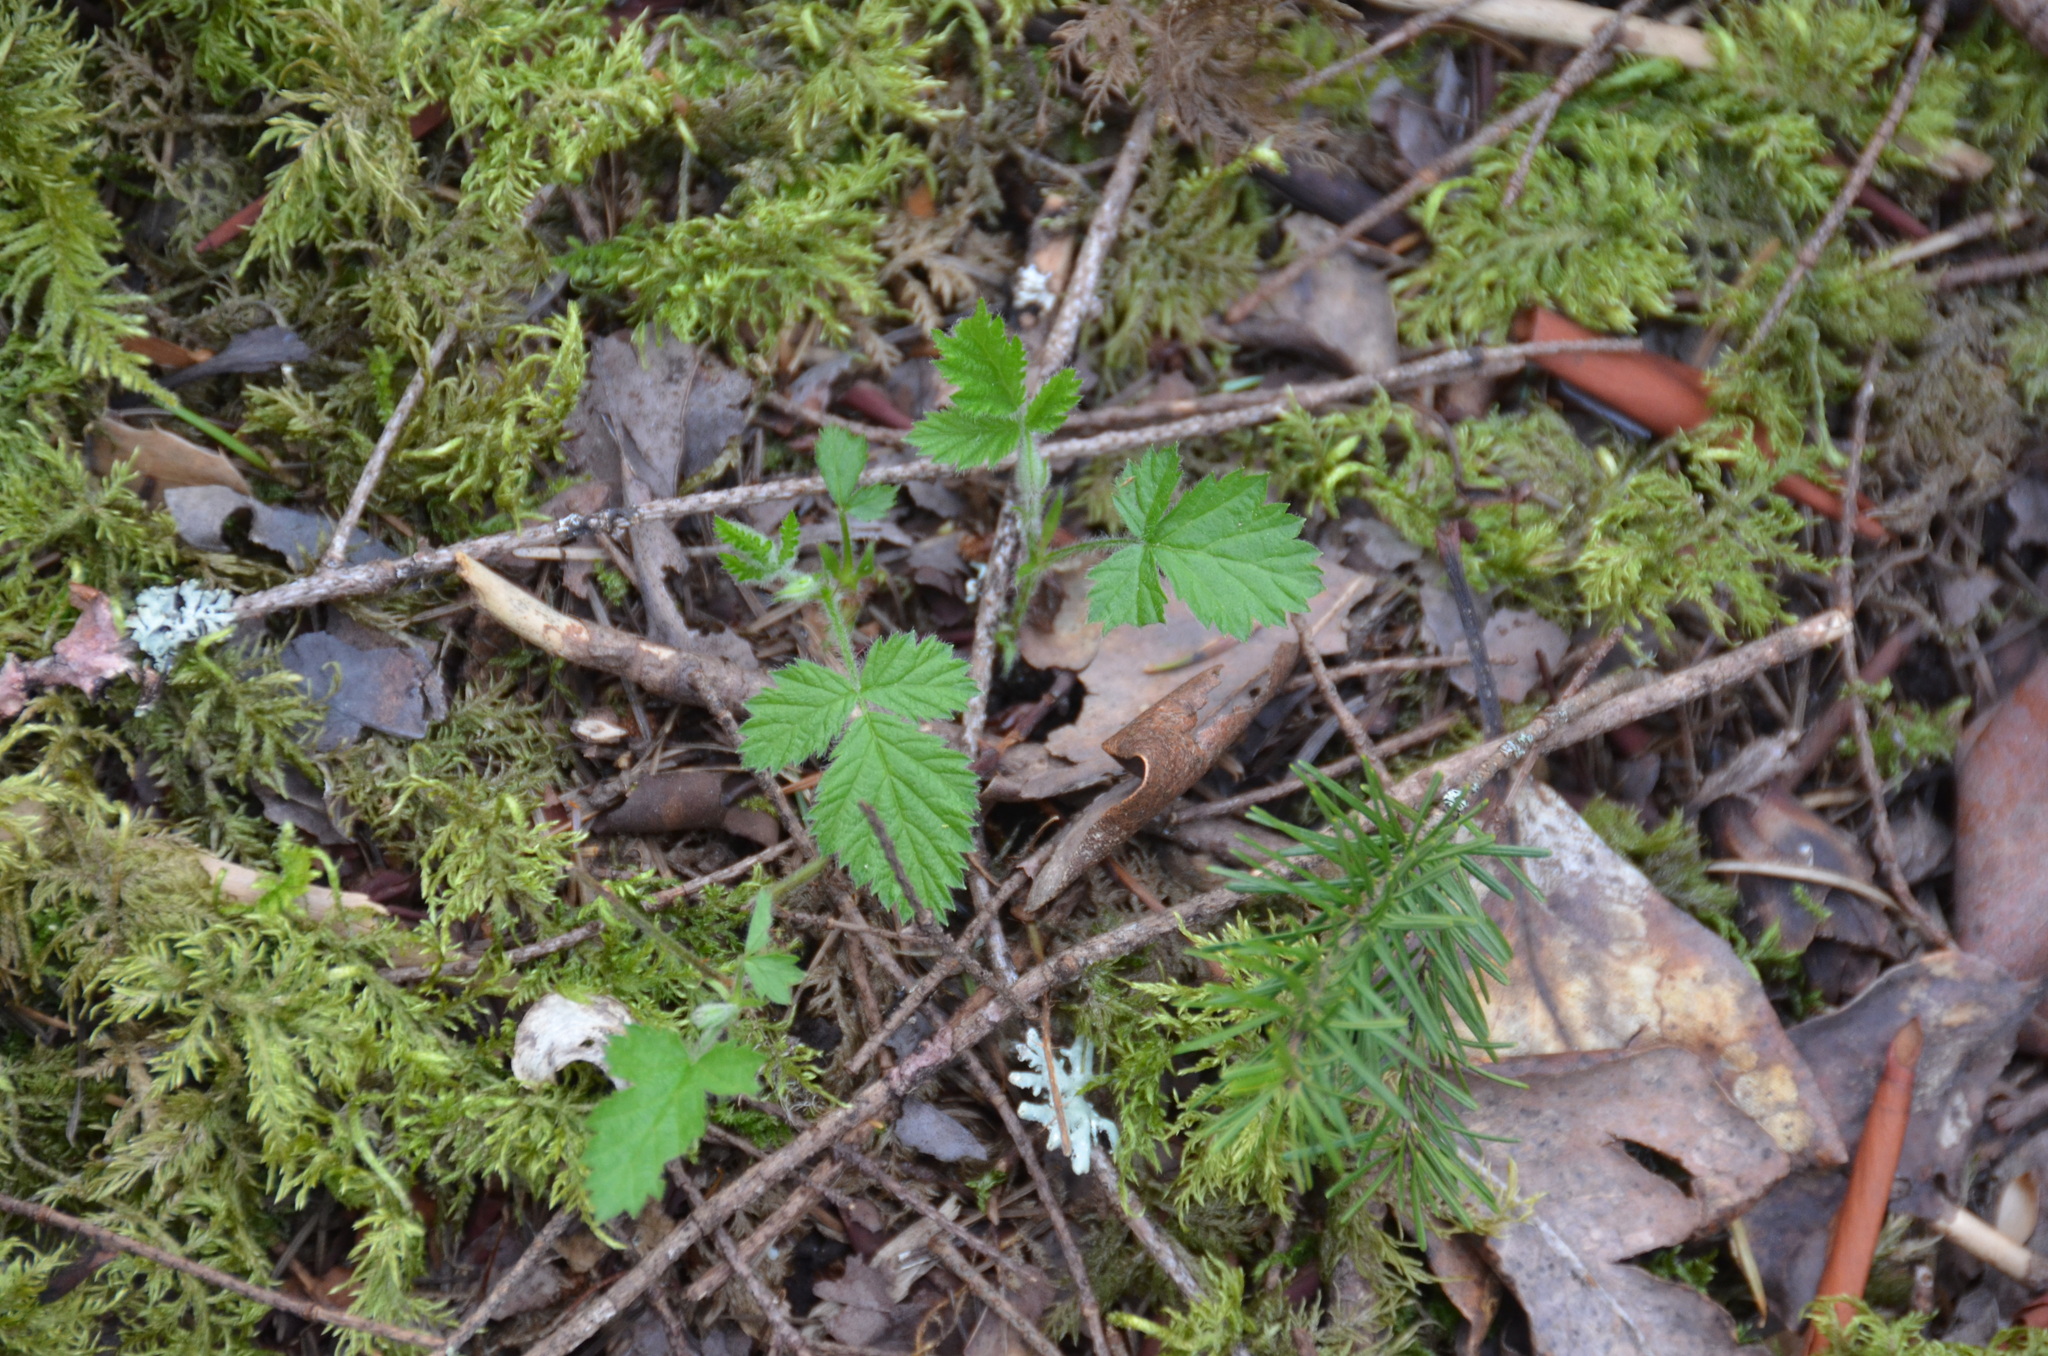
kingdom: Plantae
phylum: Tracheophyta
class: Magnoliopsida
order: Rosales
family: Rosaceae
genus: Rubus
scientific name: Rubus ursinus
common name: Pacific blackberry
